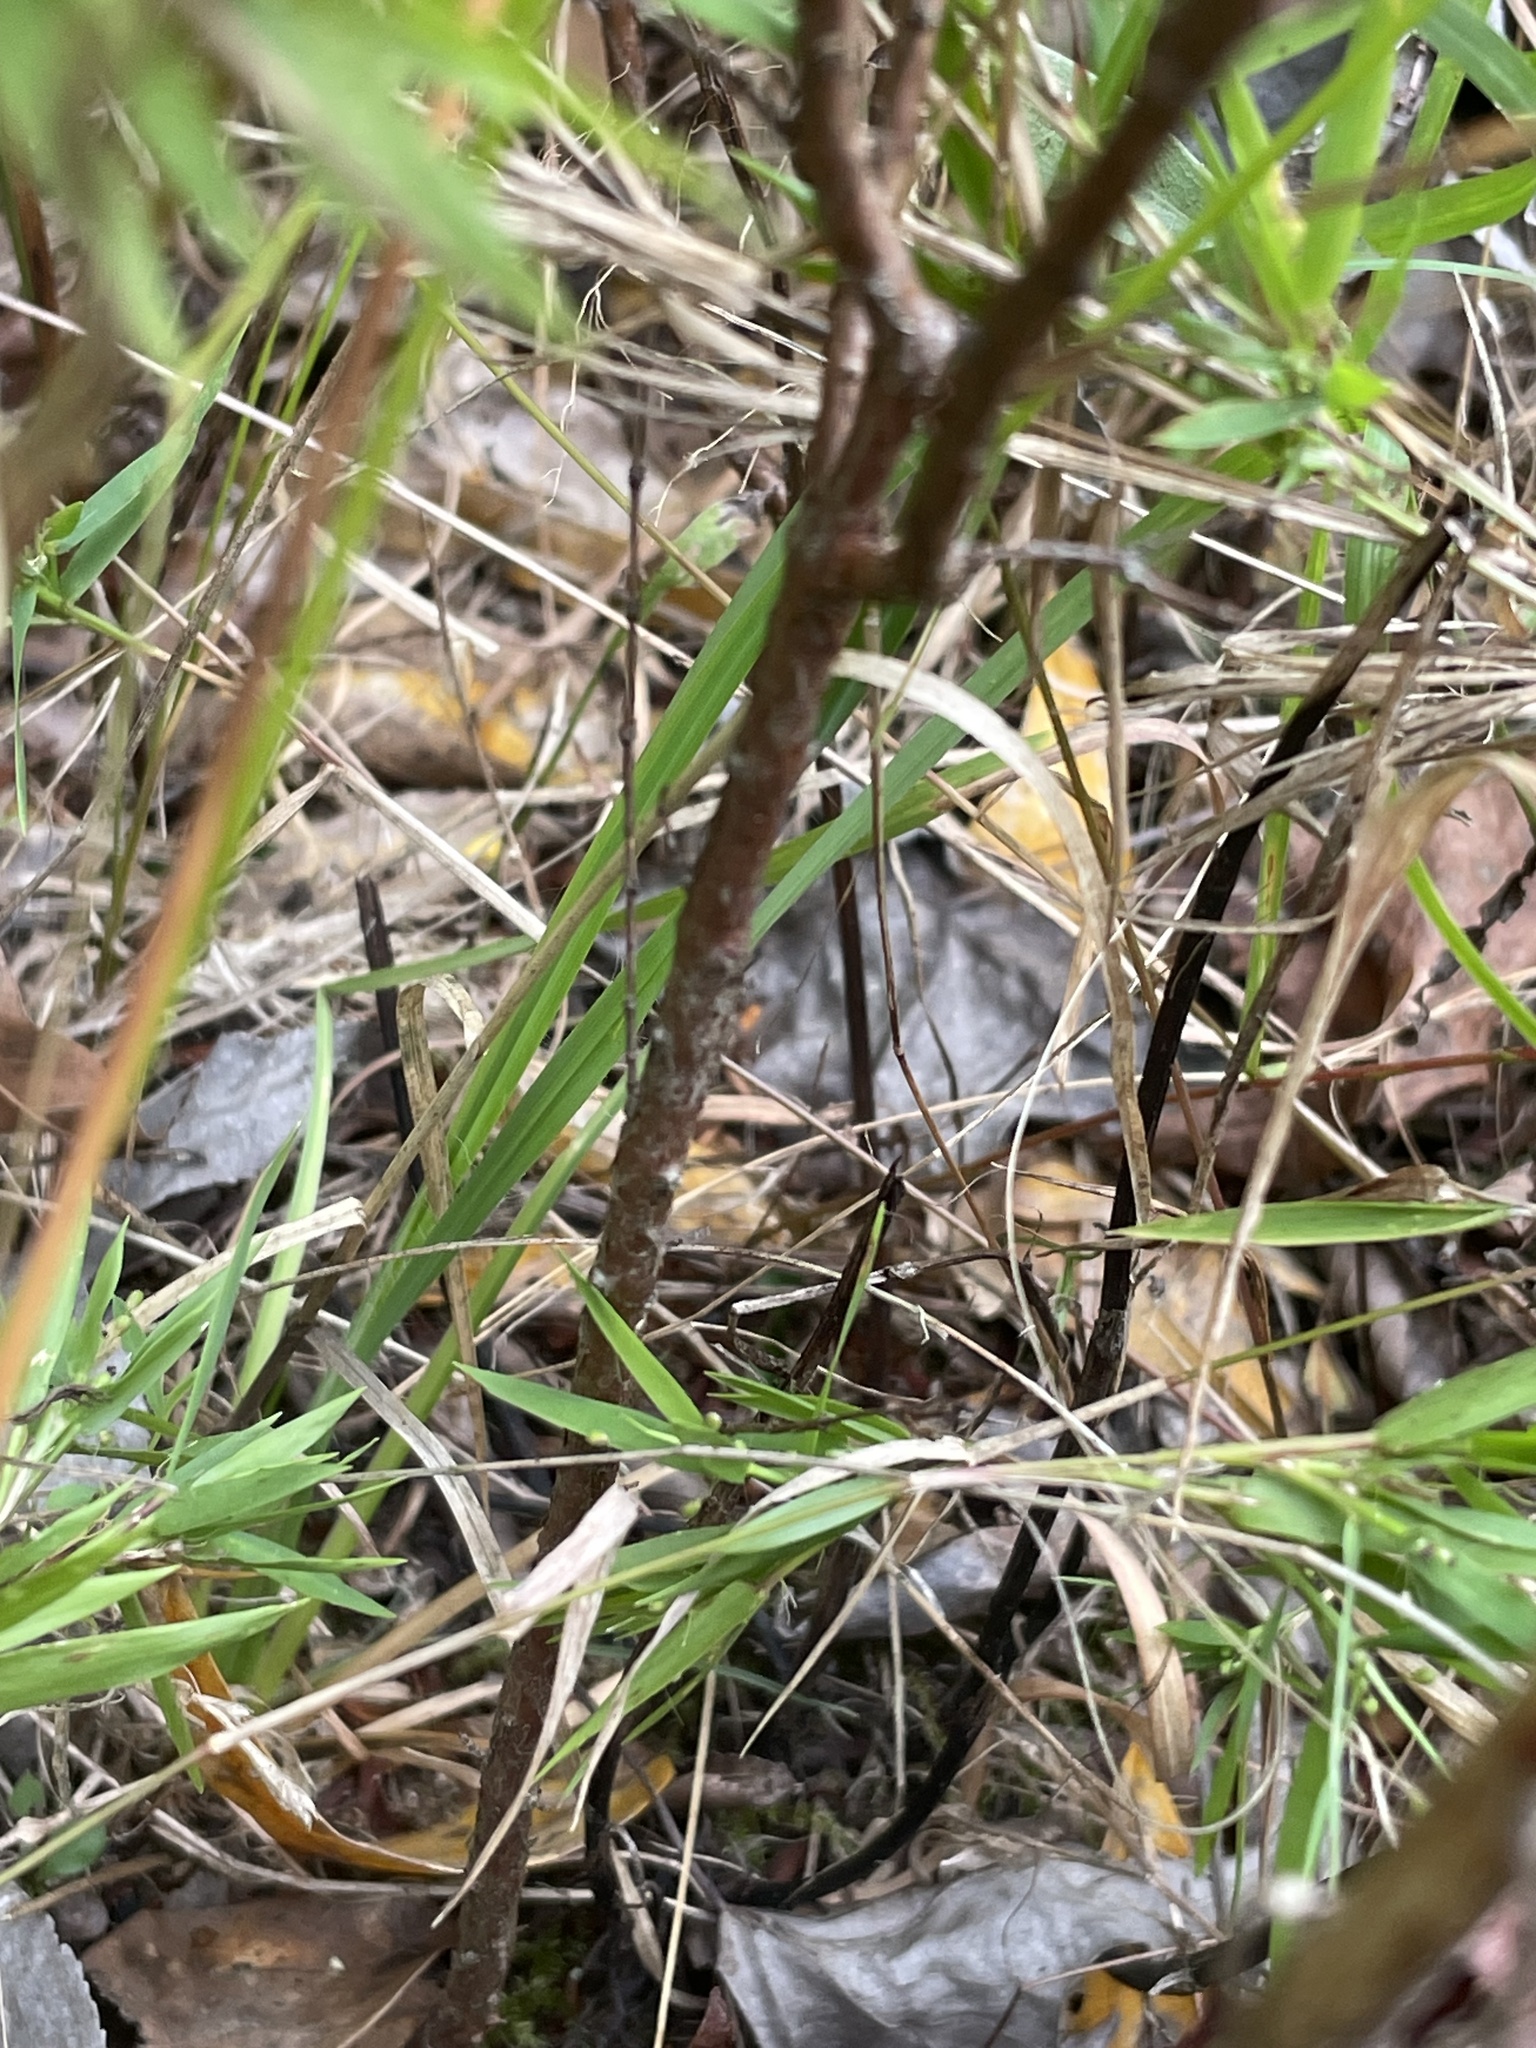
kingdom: Plantae
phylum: Tracheophyta
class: Magnoliopsida
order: Malpighiales
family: Hypericaceae
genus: Hypericum
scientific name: Hypericum hypericoides
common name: St. andrew's cross
